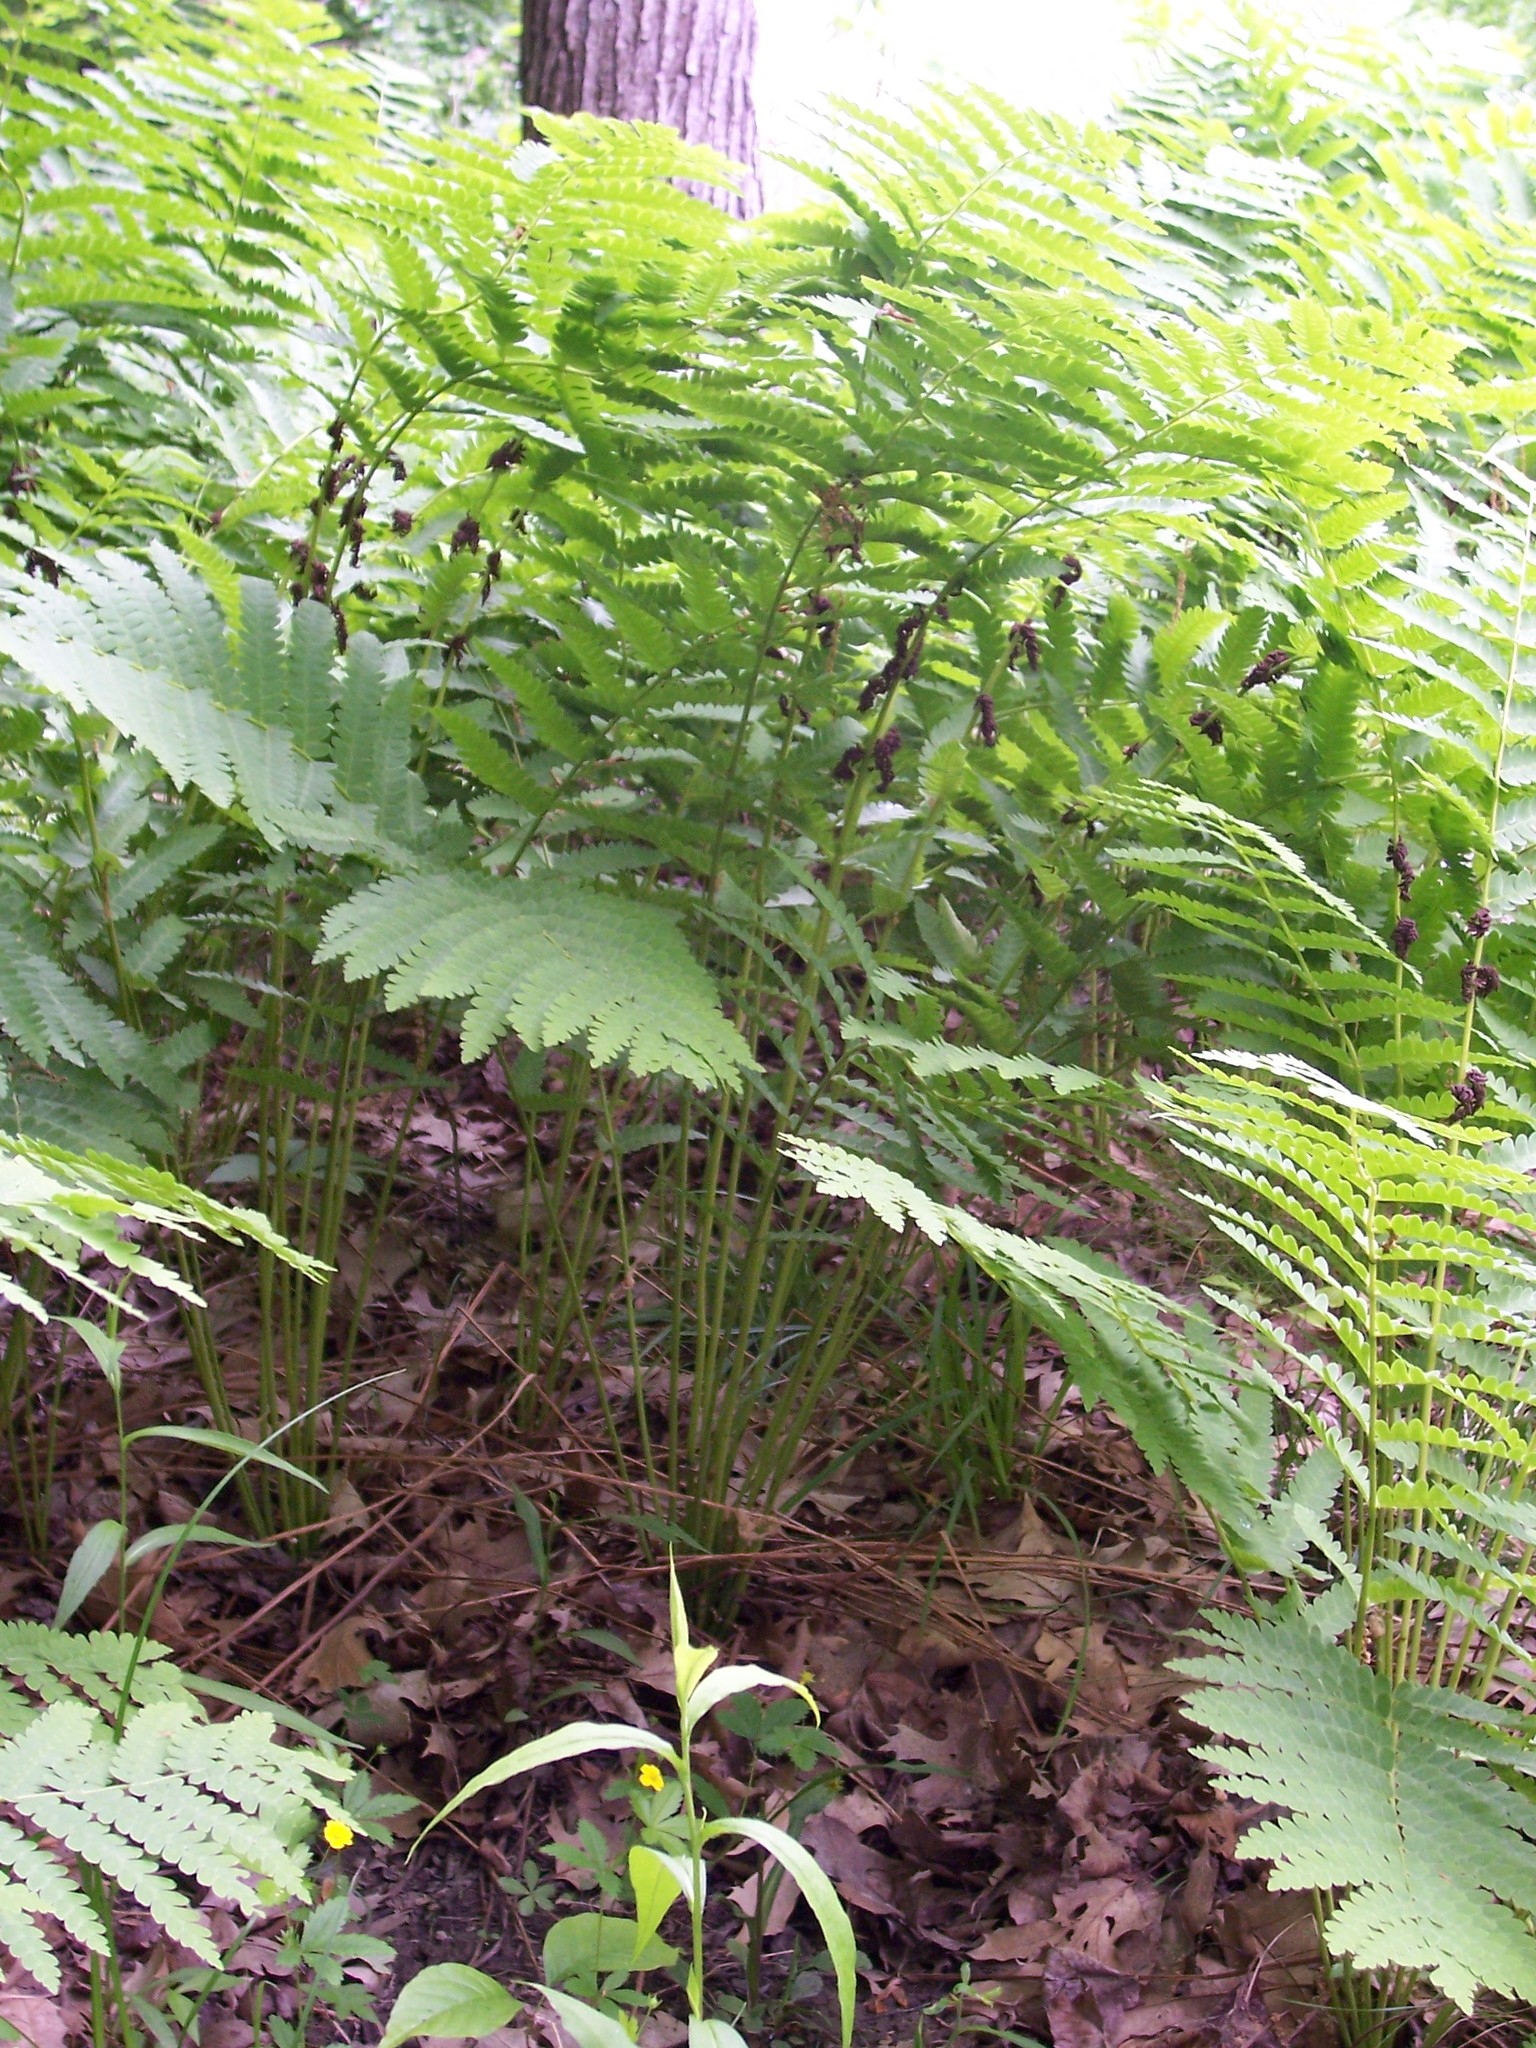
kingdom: Plantae
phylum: Tracheophyta
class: Polypodiopsida
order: Osmundales
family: Osmundaceae
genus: Claytosmunda
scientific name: Claytosmunda claytoniana
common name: Clayton's fern
